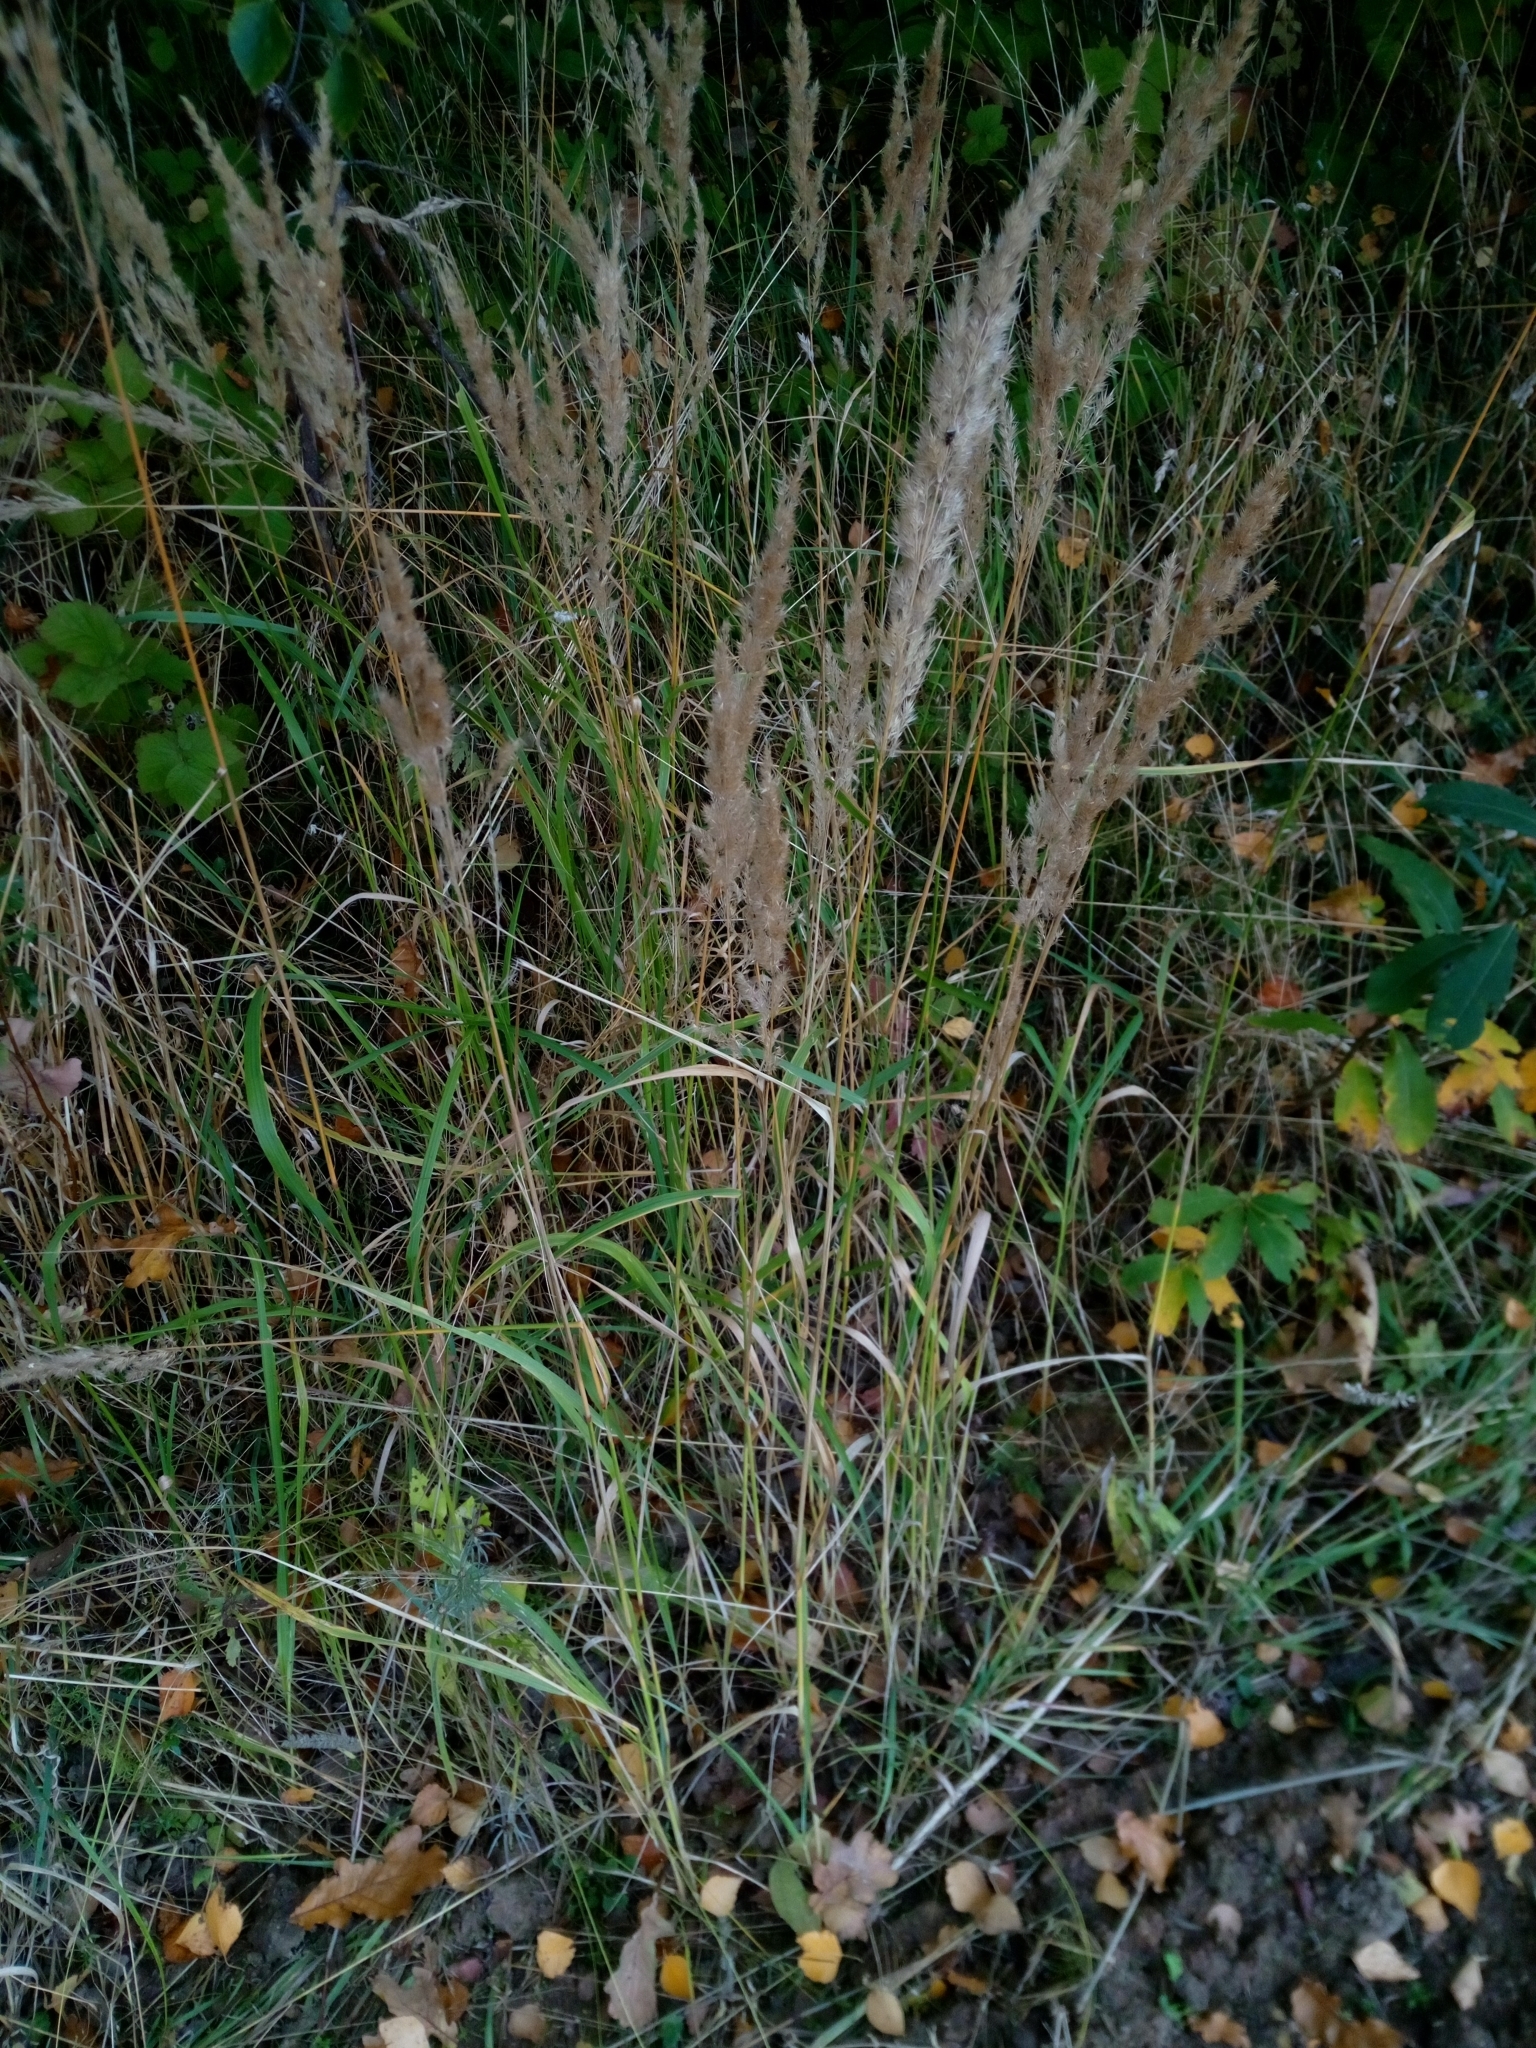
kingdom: Plantae
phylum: Tracheophyta
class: Liliopsida
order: Poales
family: Poaceae
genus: Calamagrostis
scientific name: Calamagrostis epigejos
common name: Wood small-reed
